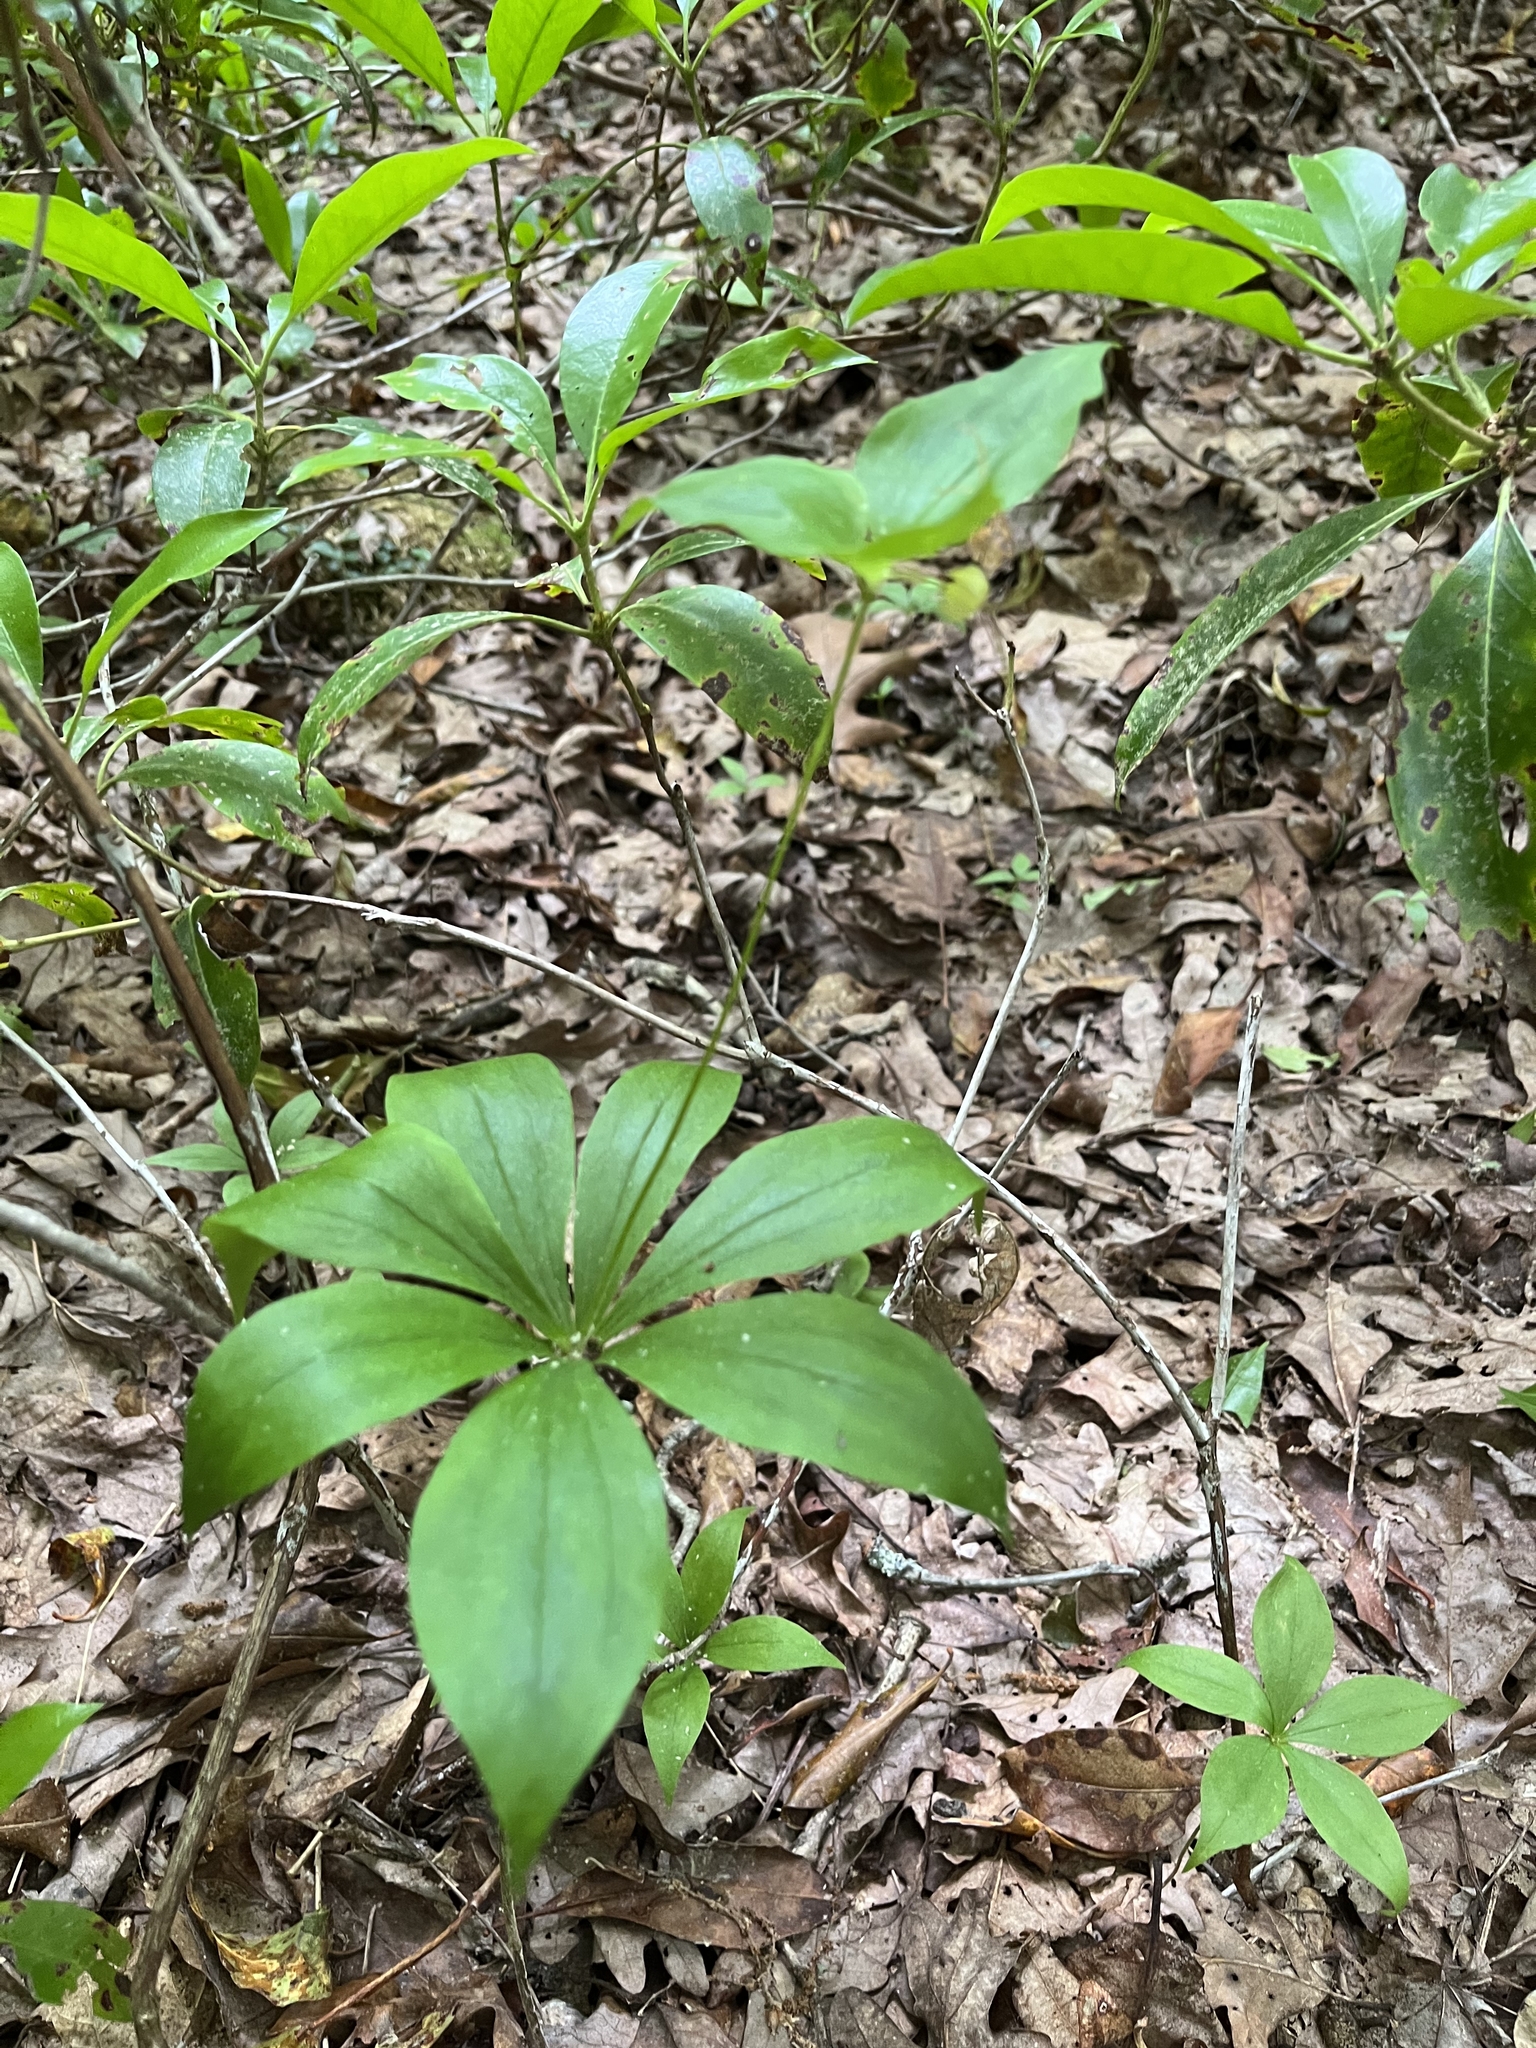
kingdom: Plantae
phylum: Tracheophyta
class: Liliopsida
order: Liliales
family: Liliaceae
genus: Medeola
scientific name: Medeola virginiana
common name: Indian cucumber-root
